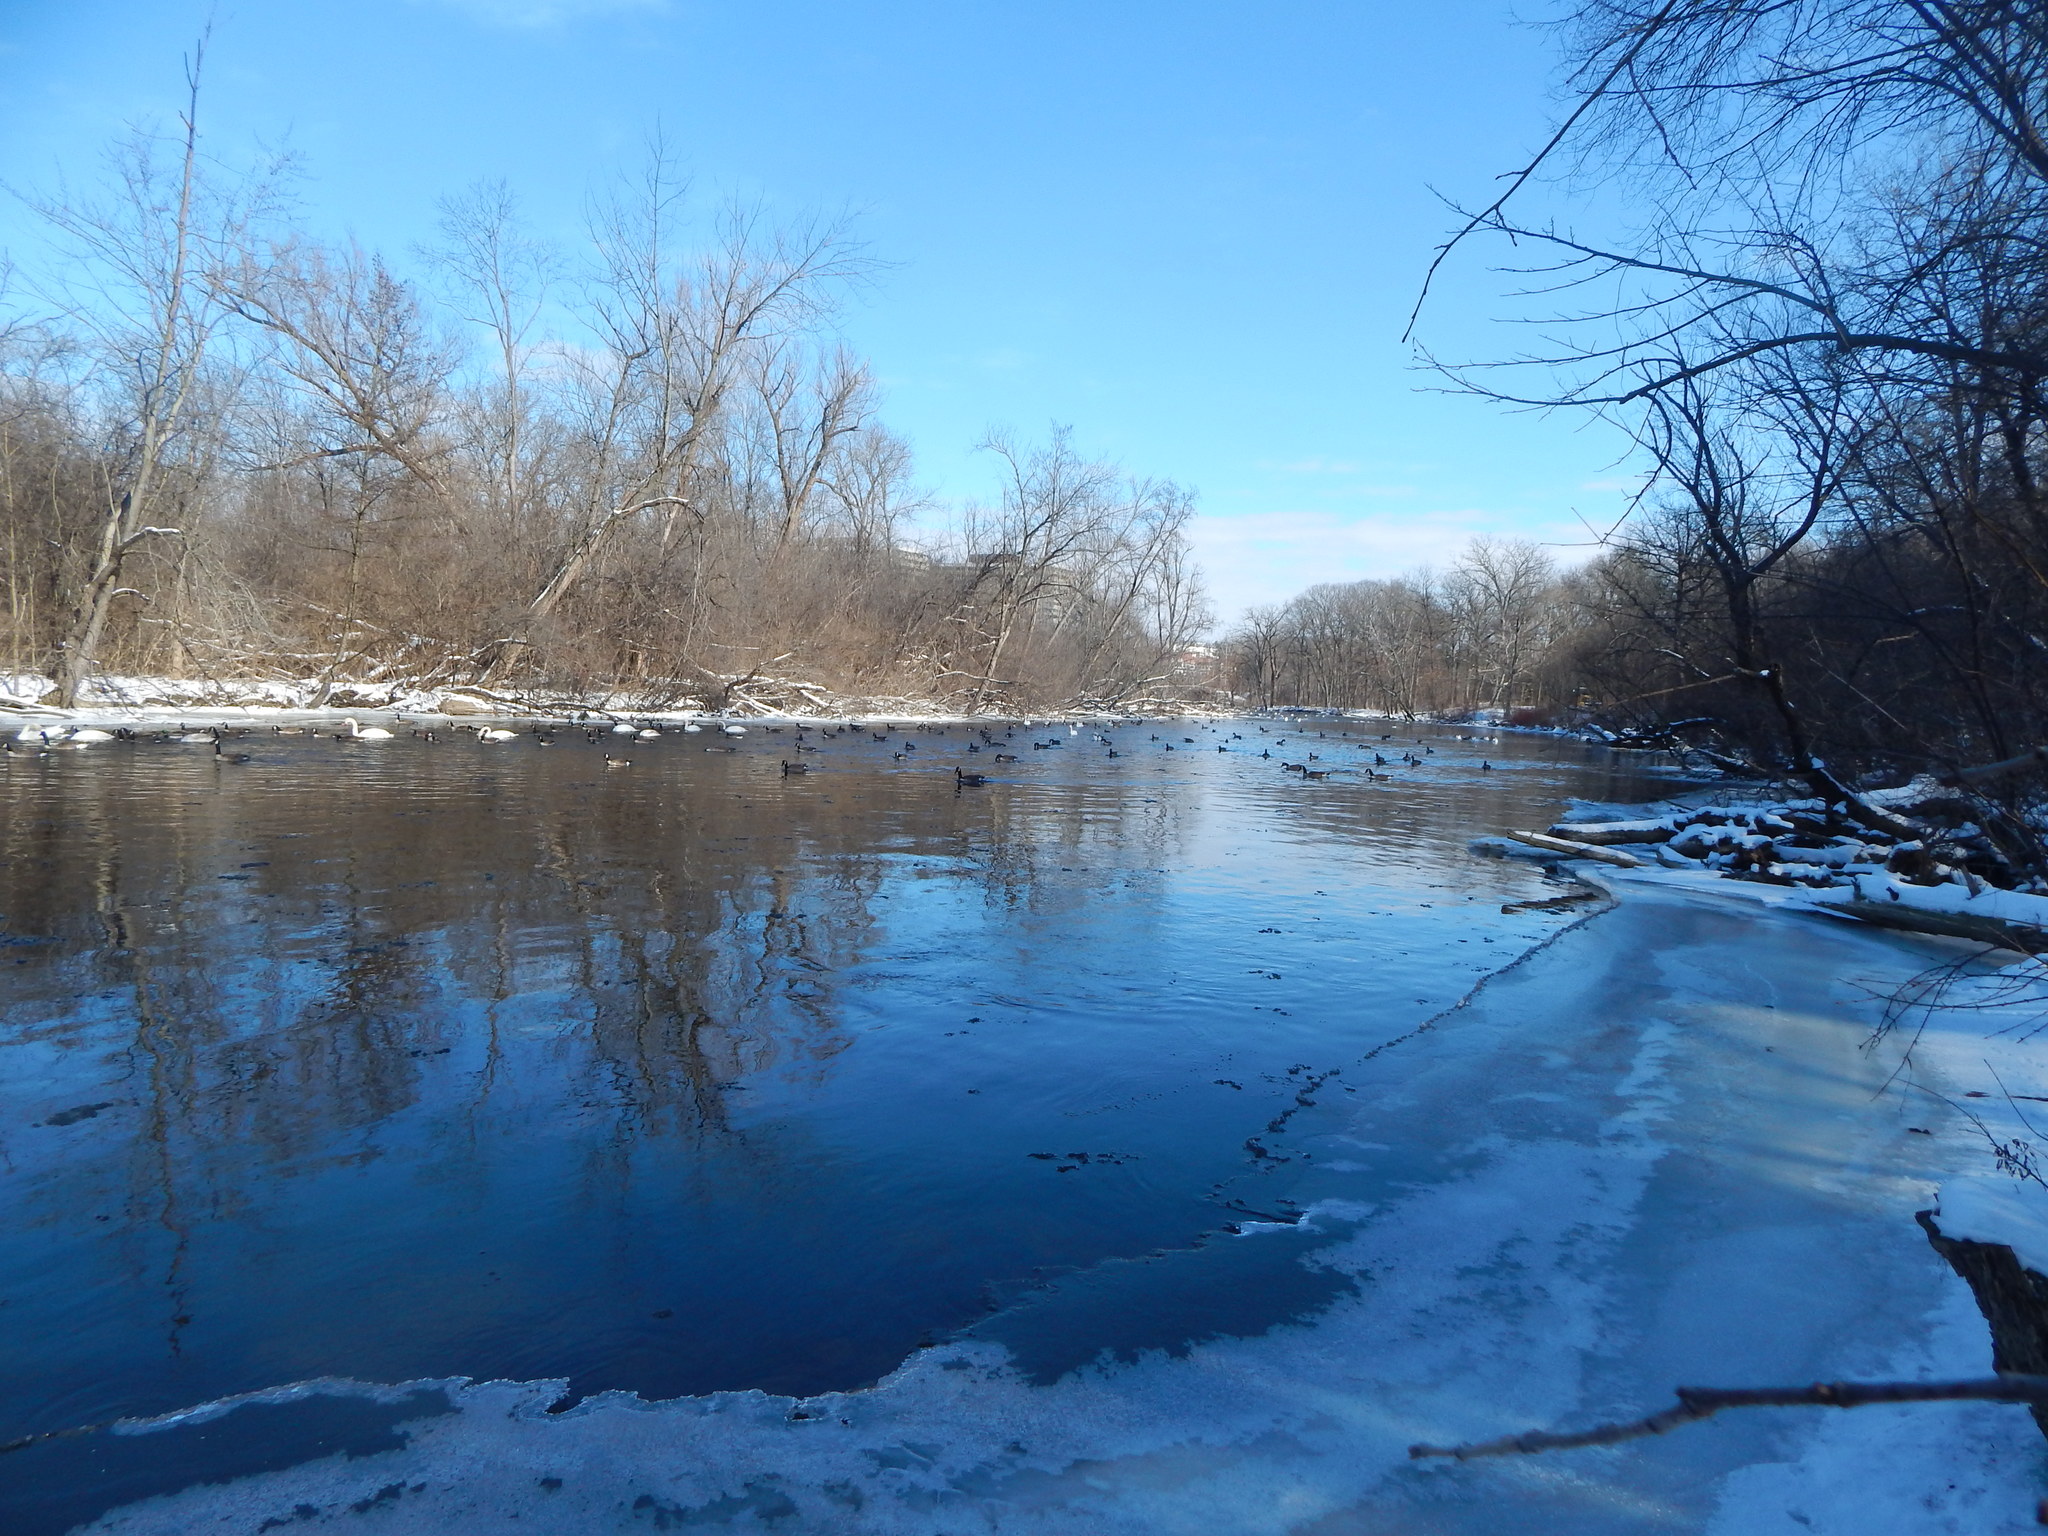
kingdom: Animalia
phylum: Chordata
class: Aves
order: Anseriformes
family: Anatidae
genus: Branta
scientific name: Branta canadensis
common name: Canada goose
